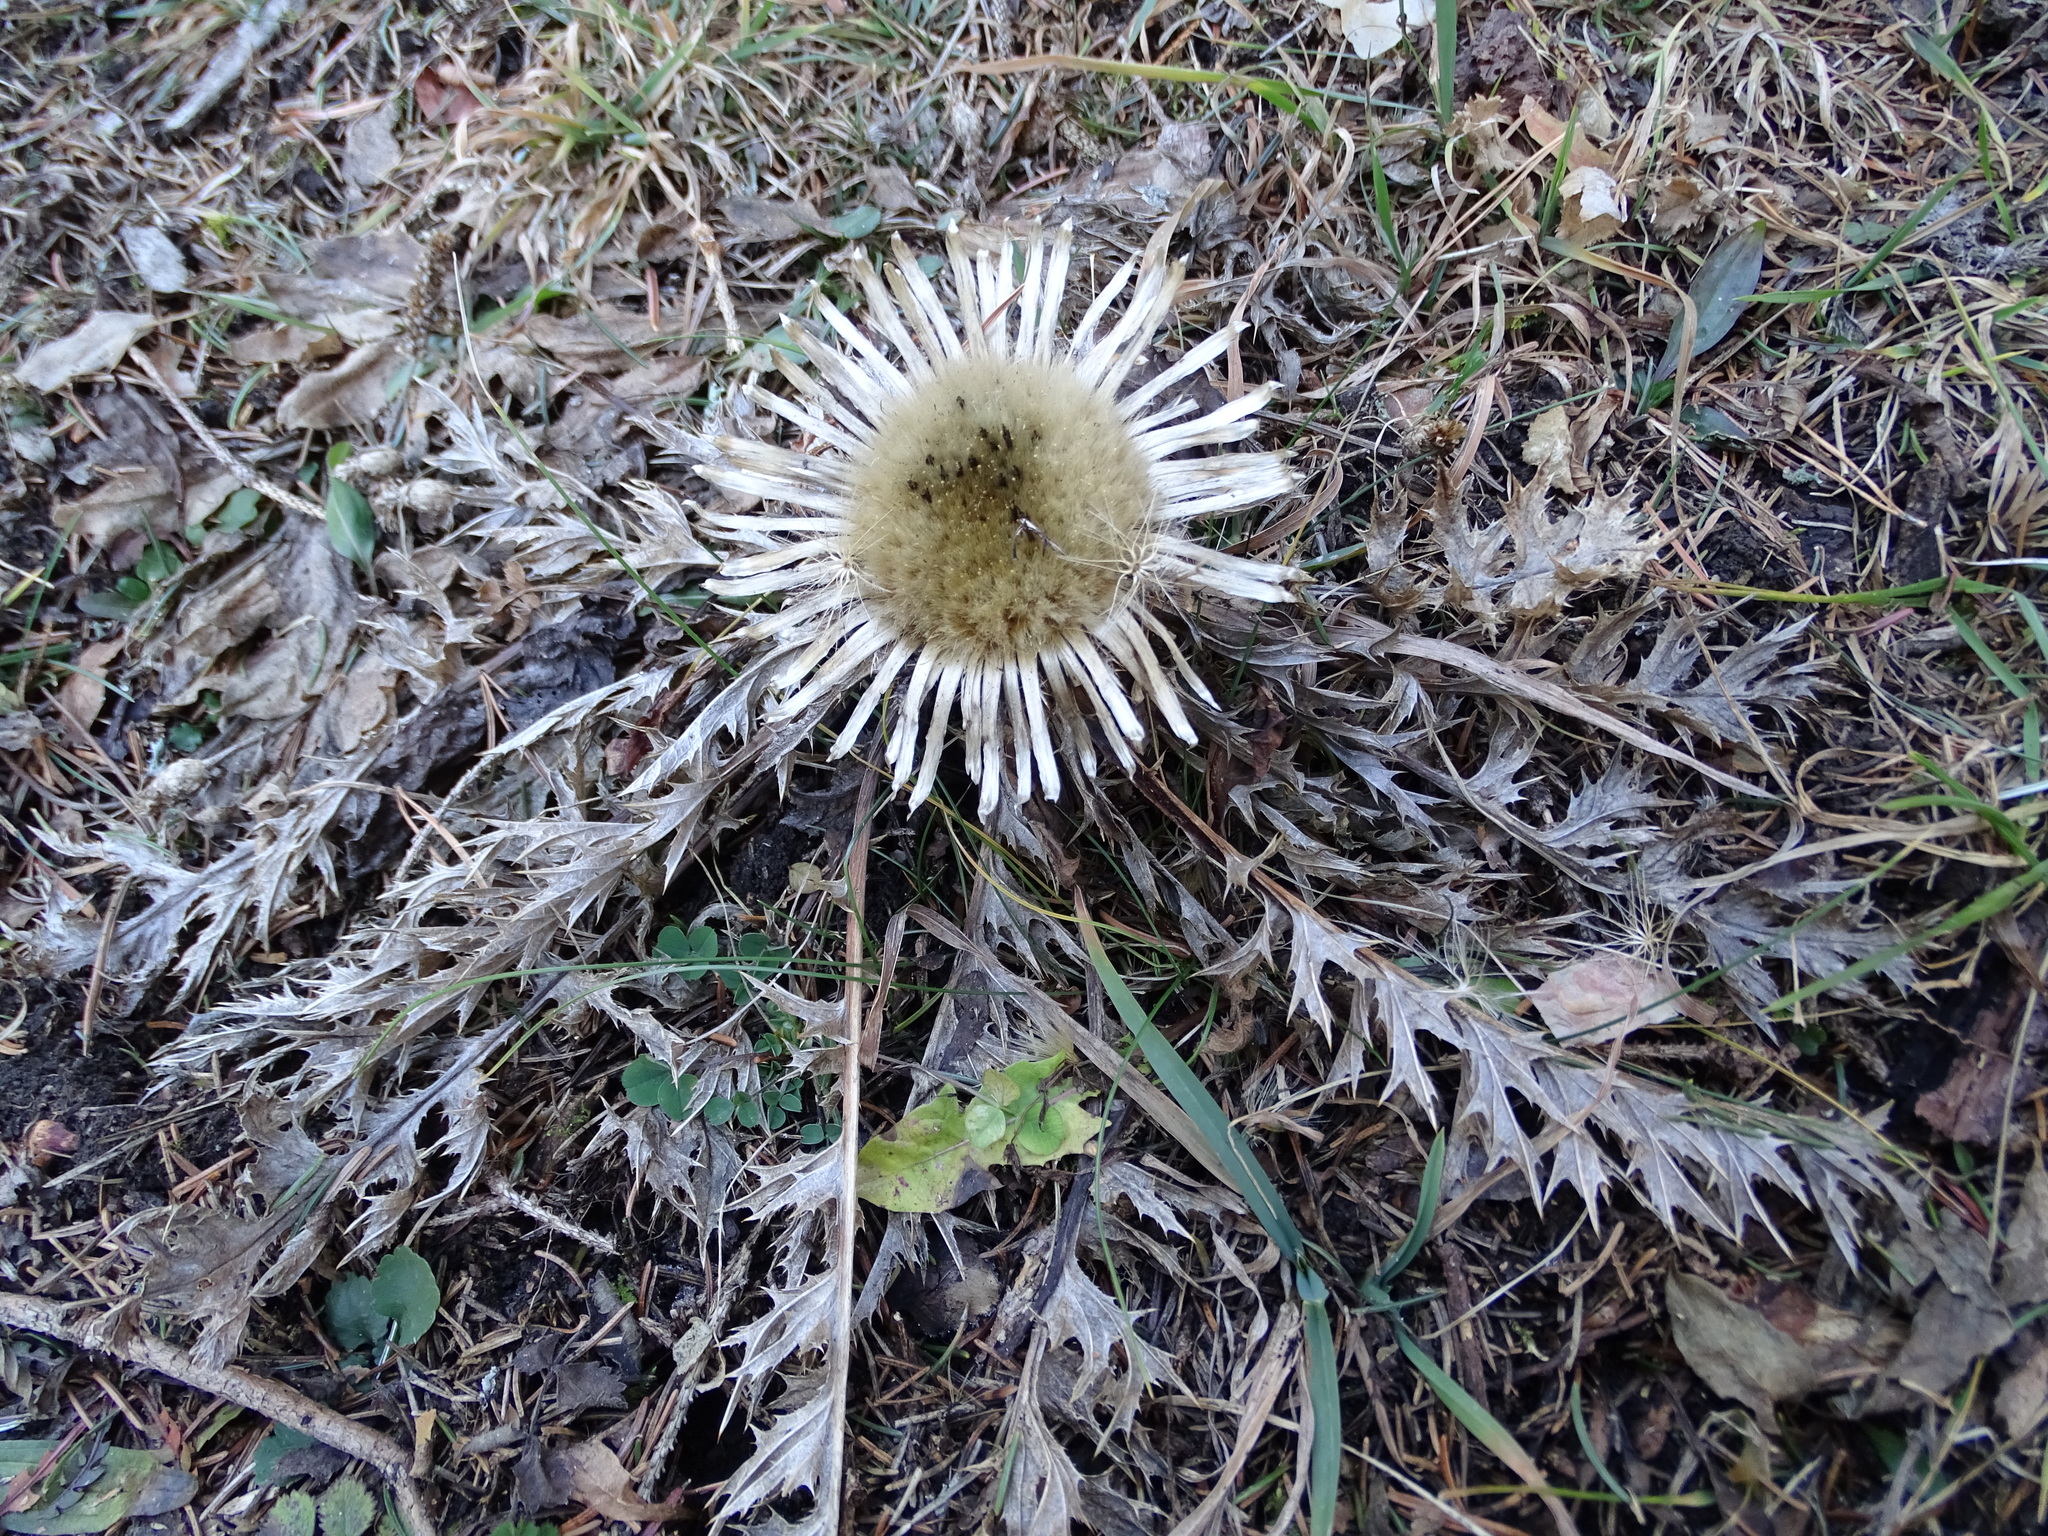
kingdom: Plantae
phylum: Tracheophyta
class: Magnoliopsida
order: Asterales
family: Asteraceae
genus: Carlina
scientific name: Carlina acaulis
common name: Stemless carline thistle
